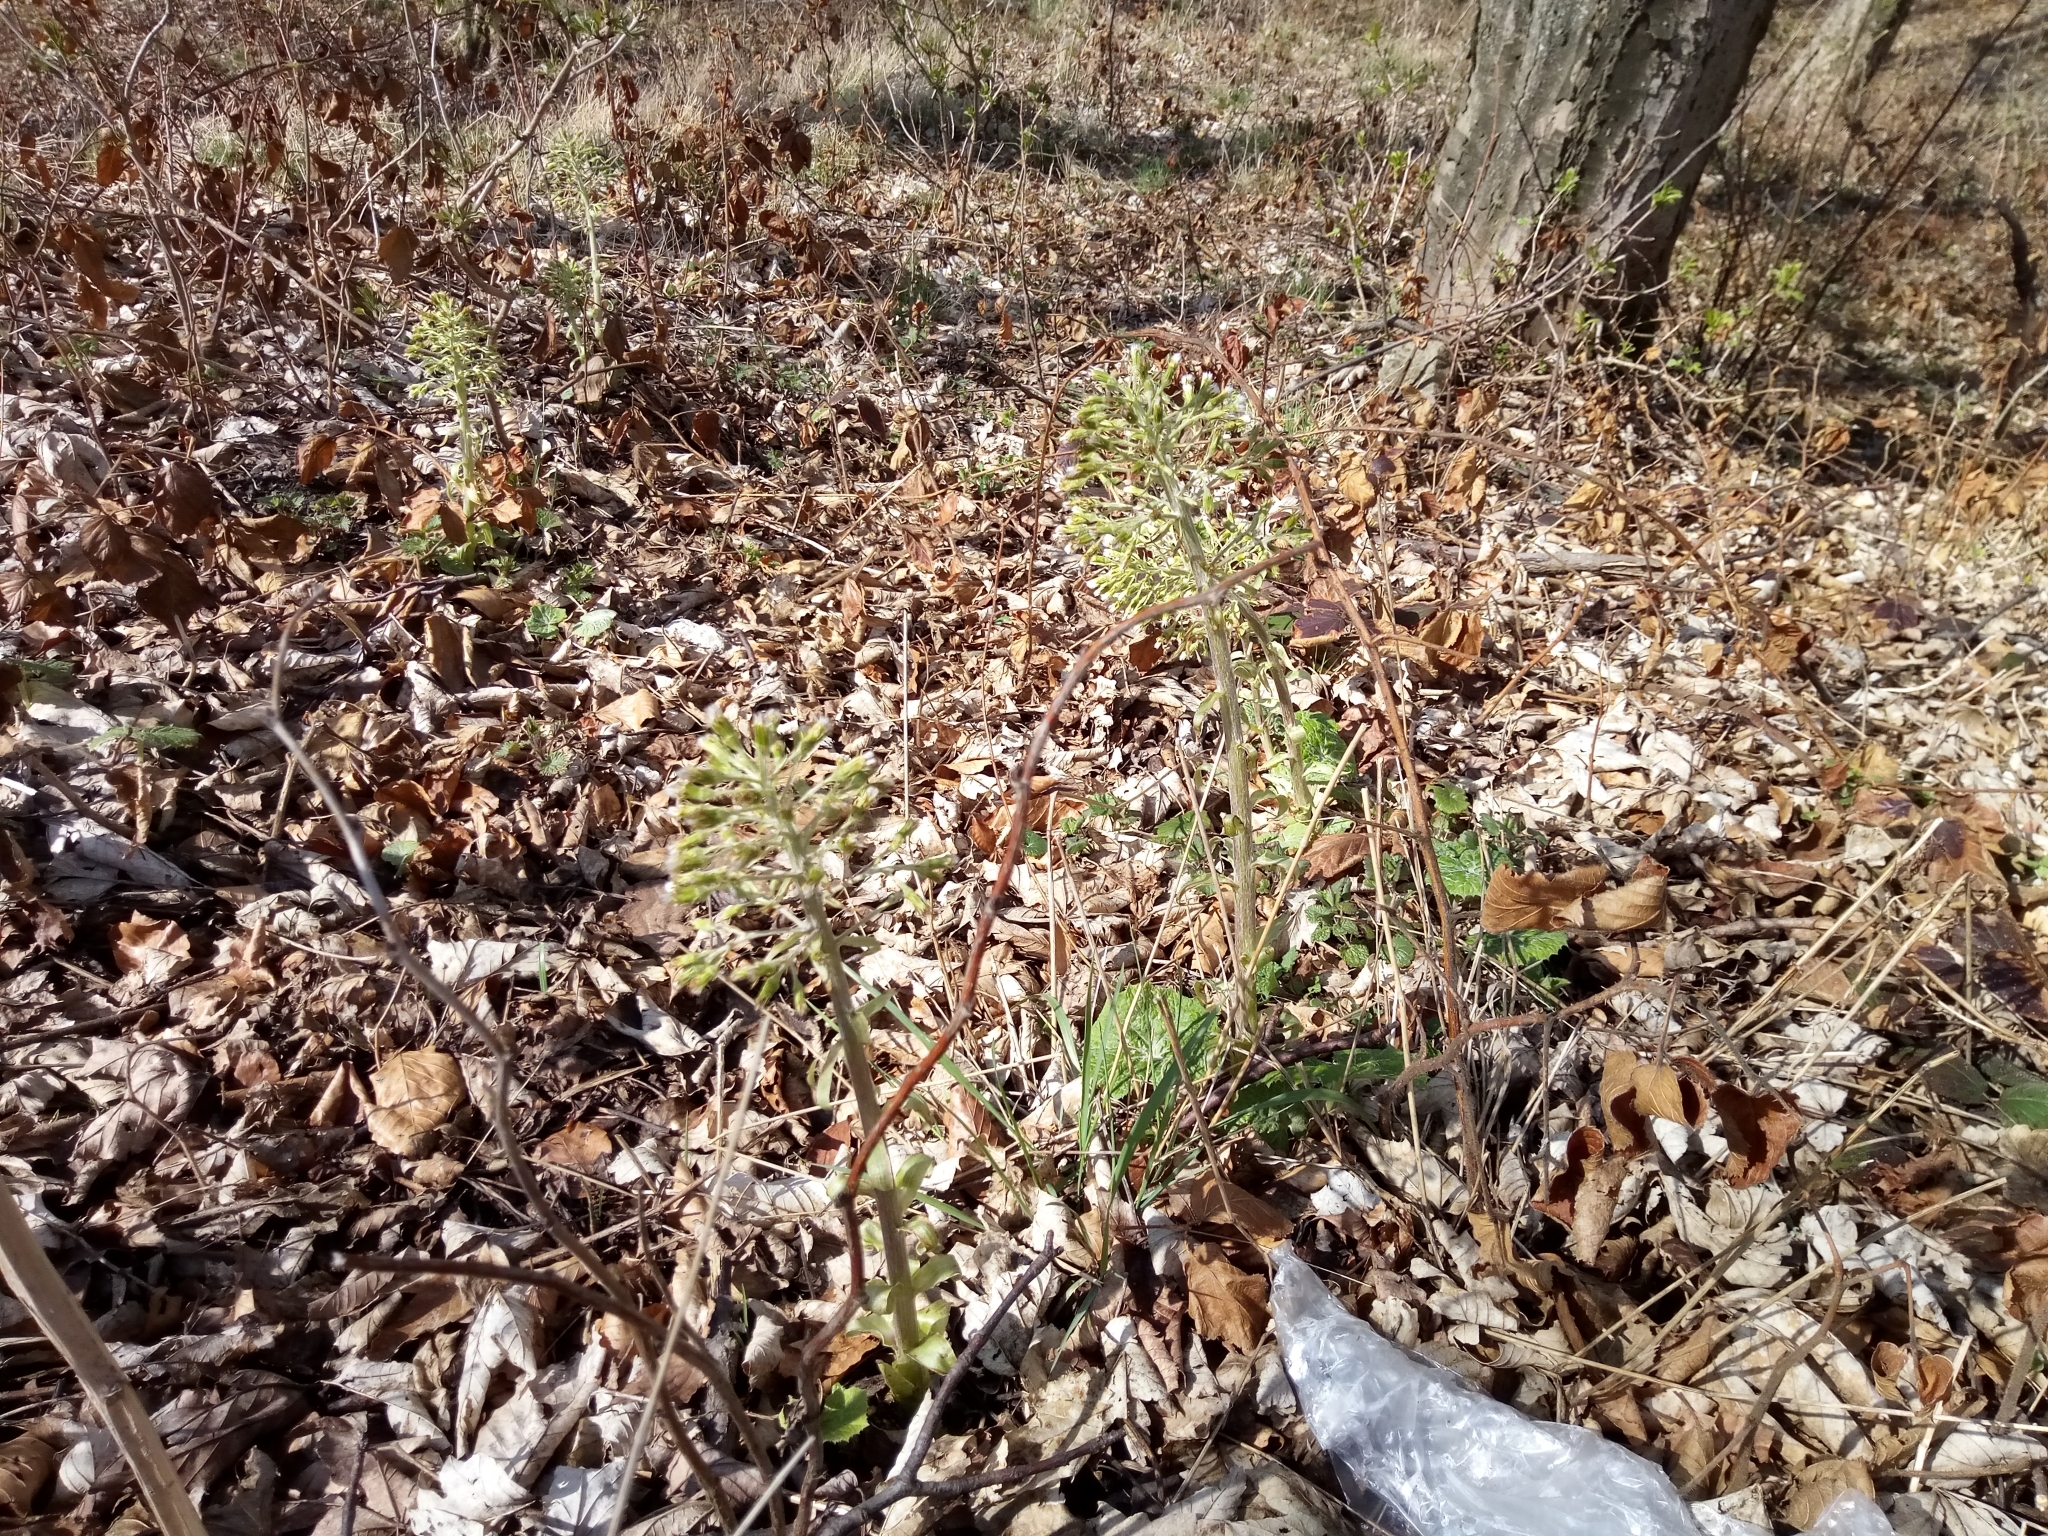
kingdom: Plantae
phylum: Tracheophyta
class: Magnoliopsida
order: Asterales
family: Asteraceae
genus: Petasites
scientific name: Petasites albus
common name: White butterbur
